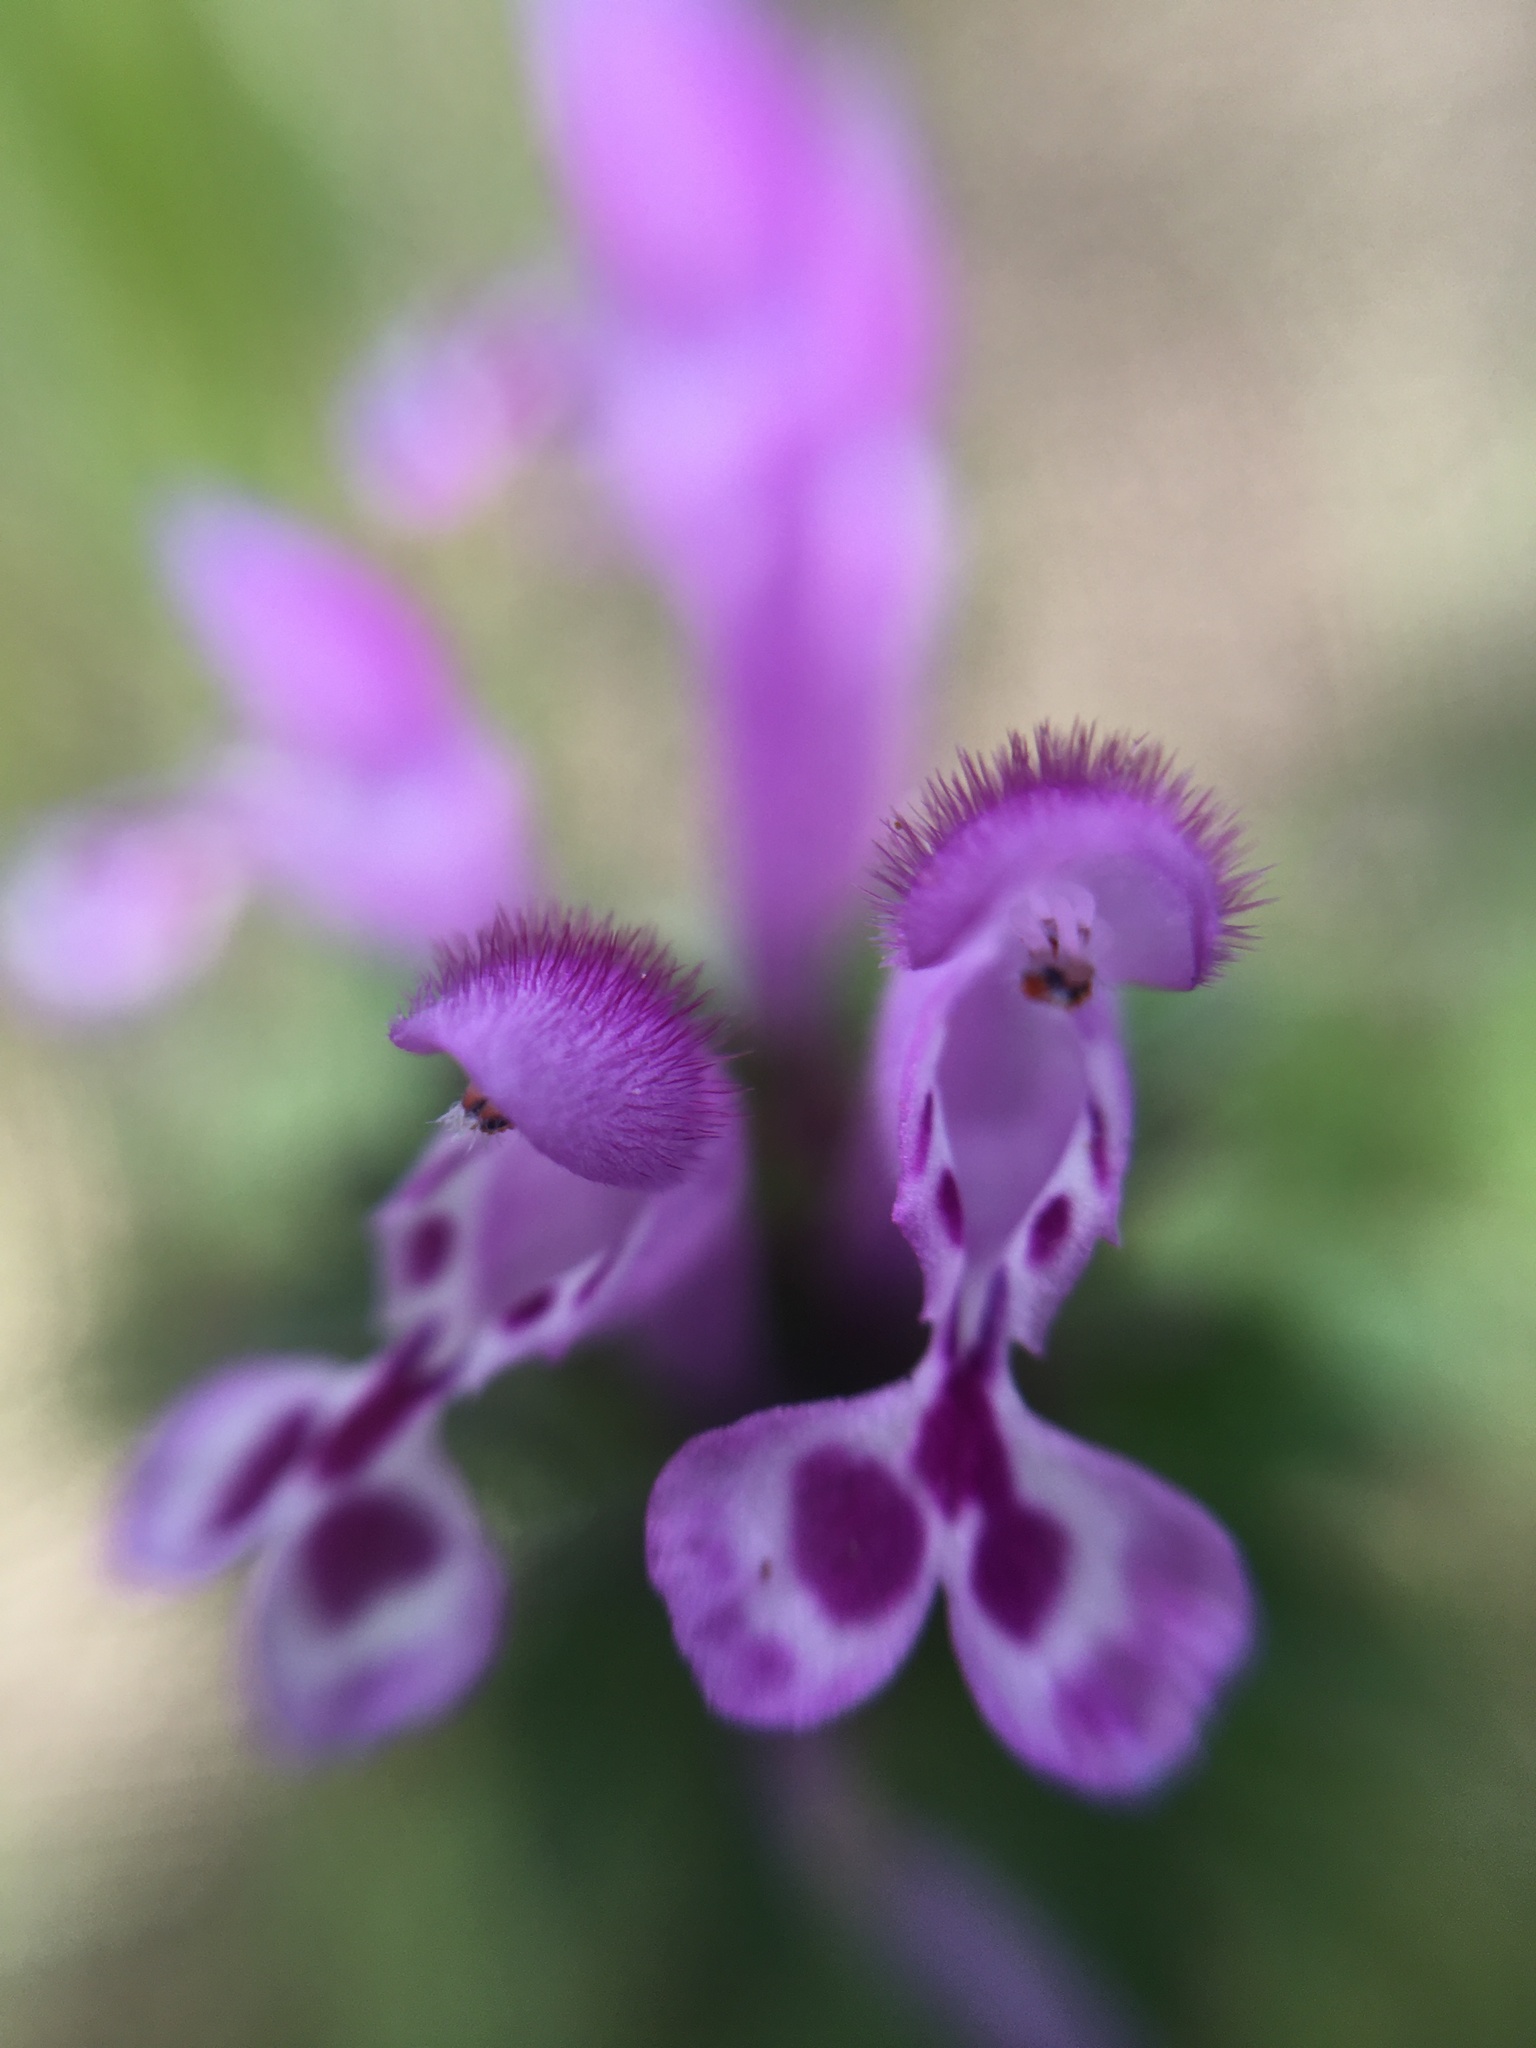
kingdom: Plantae
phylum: Tracheophyta
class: Magnoliopsida
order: Lamiales
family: Lamiaceae
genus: Lamium
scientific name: Lamium amplexicaule
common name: Henbit dead-nettle
